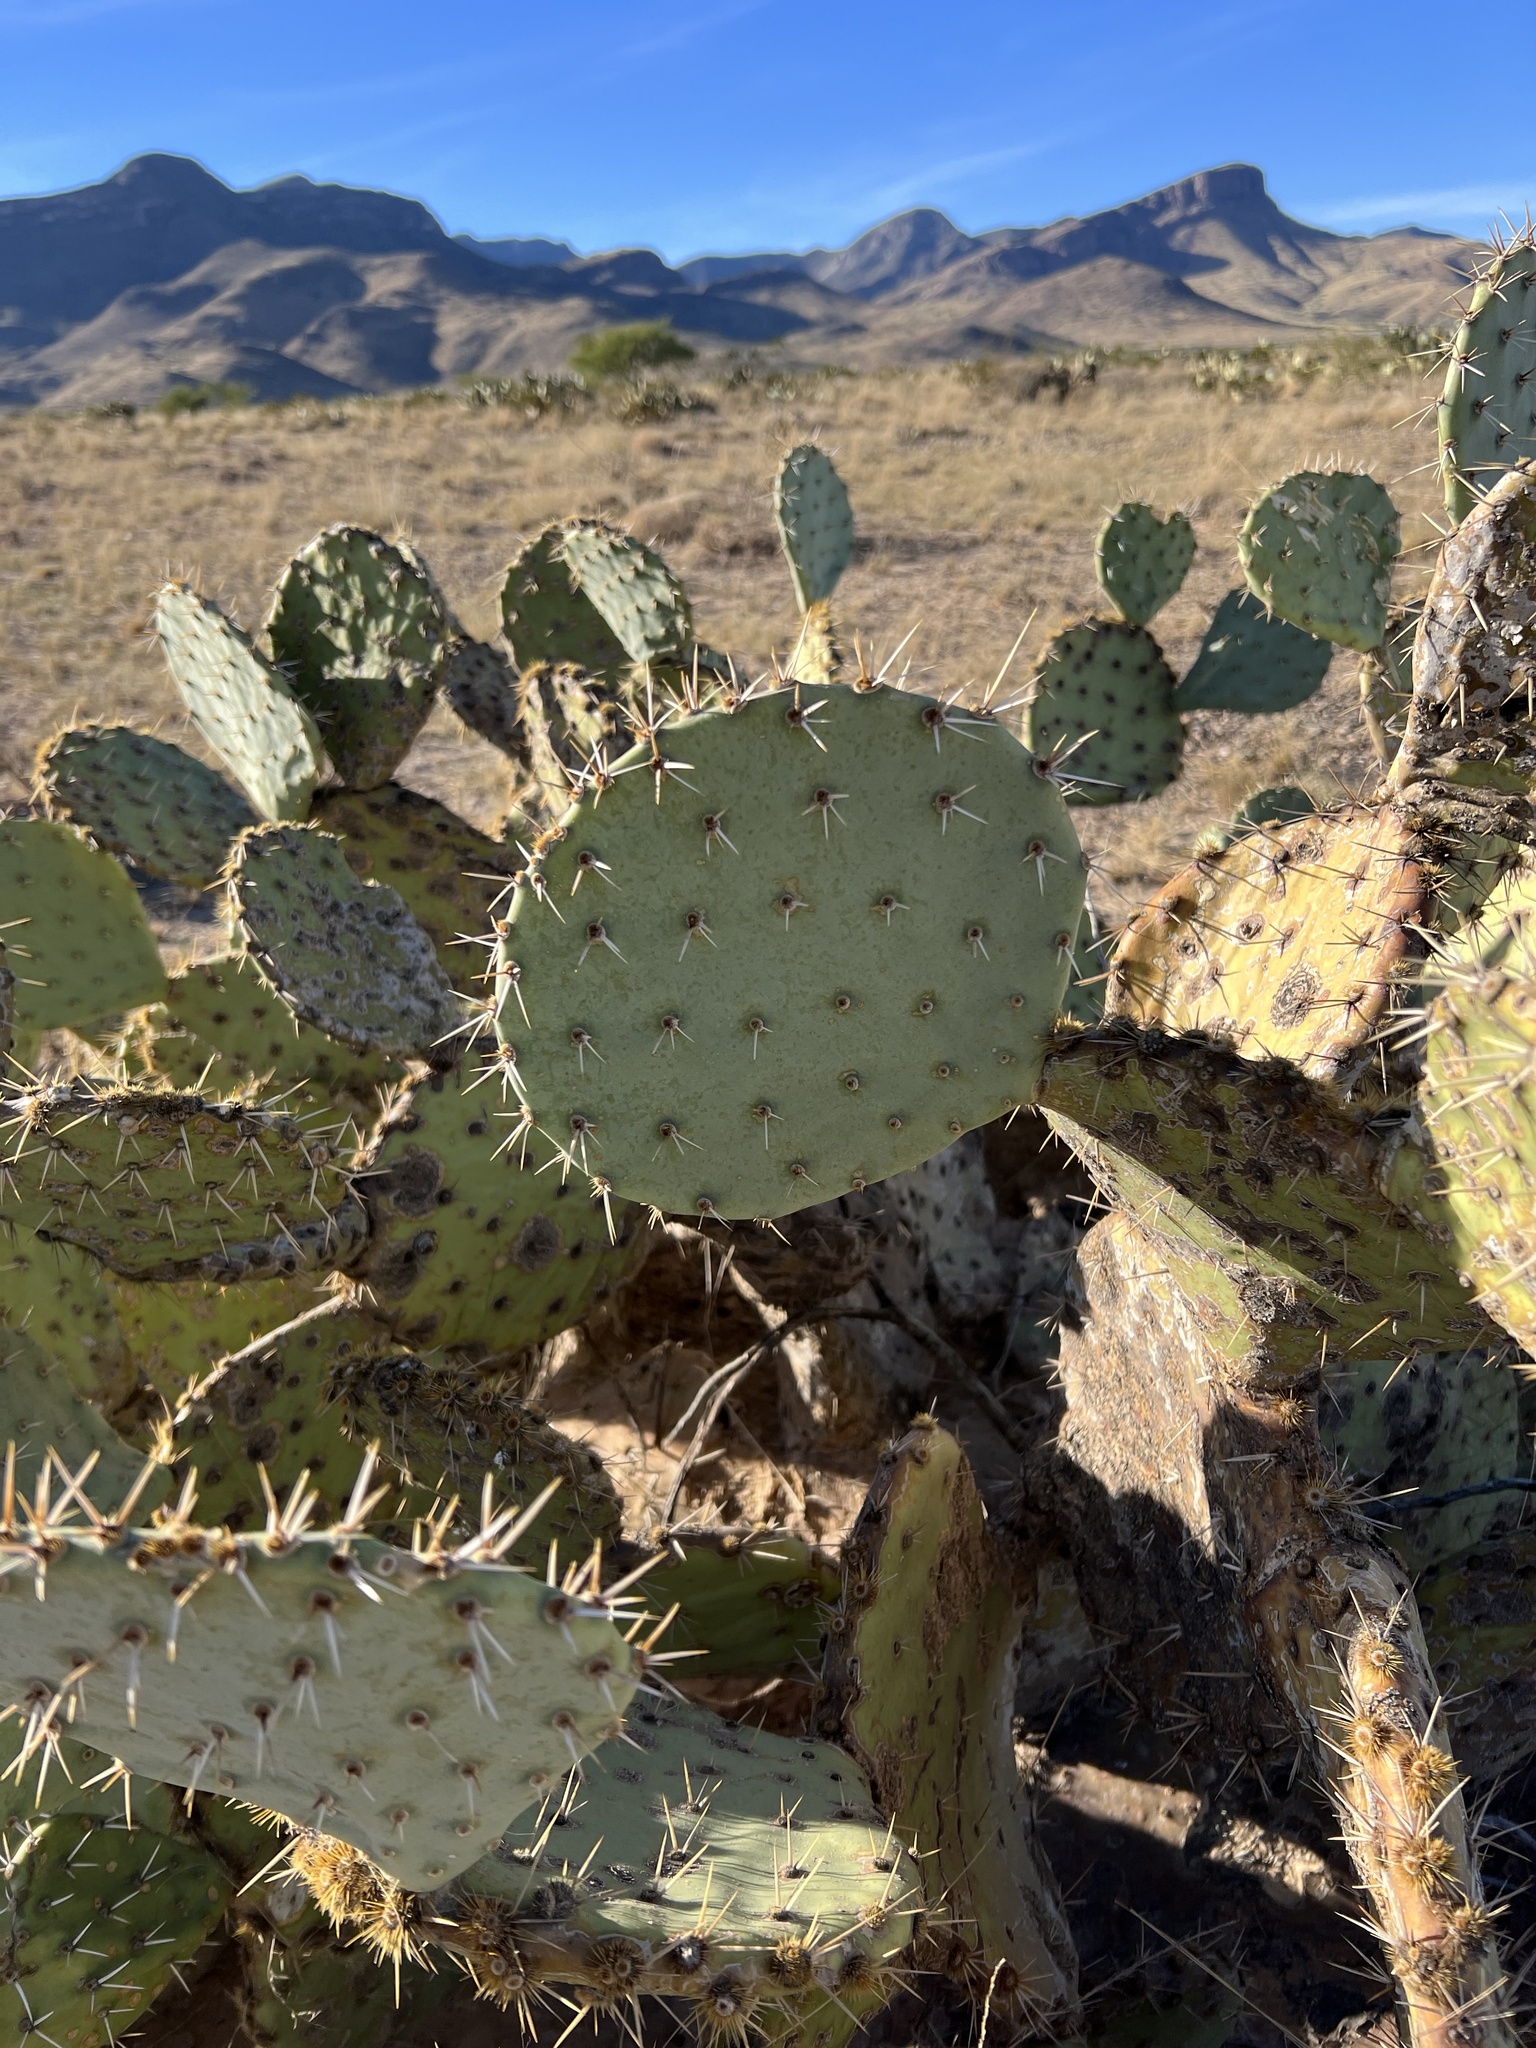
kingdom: Plantae
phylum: Tracheophyta
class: Magnoliopsida
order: Caryophyllales
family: Cactaceae
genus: Opuntia
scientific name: Opuntia engelmannii
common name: Cactus-apple
